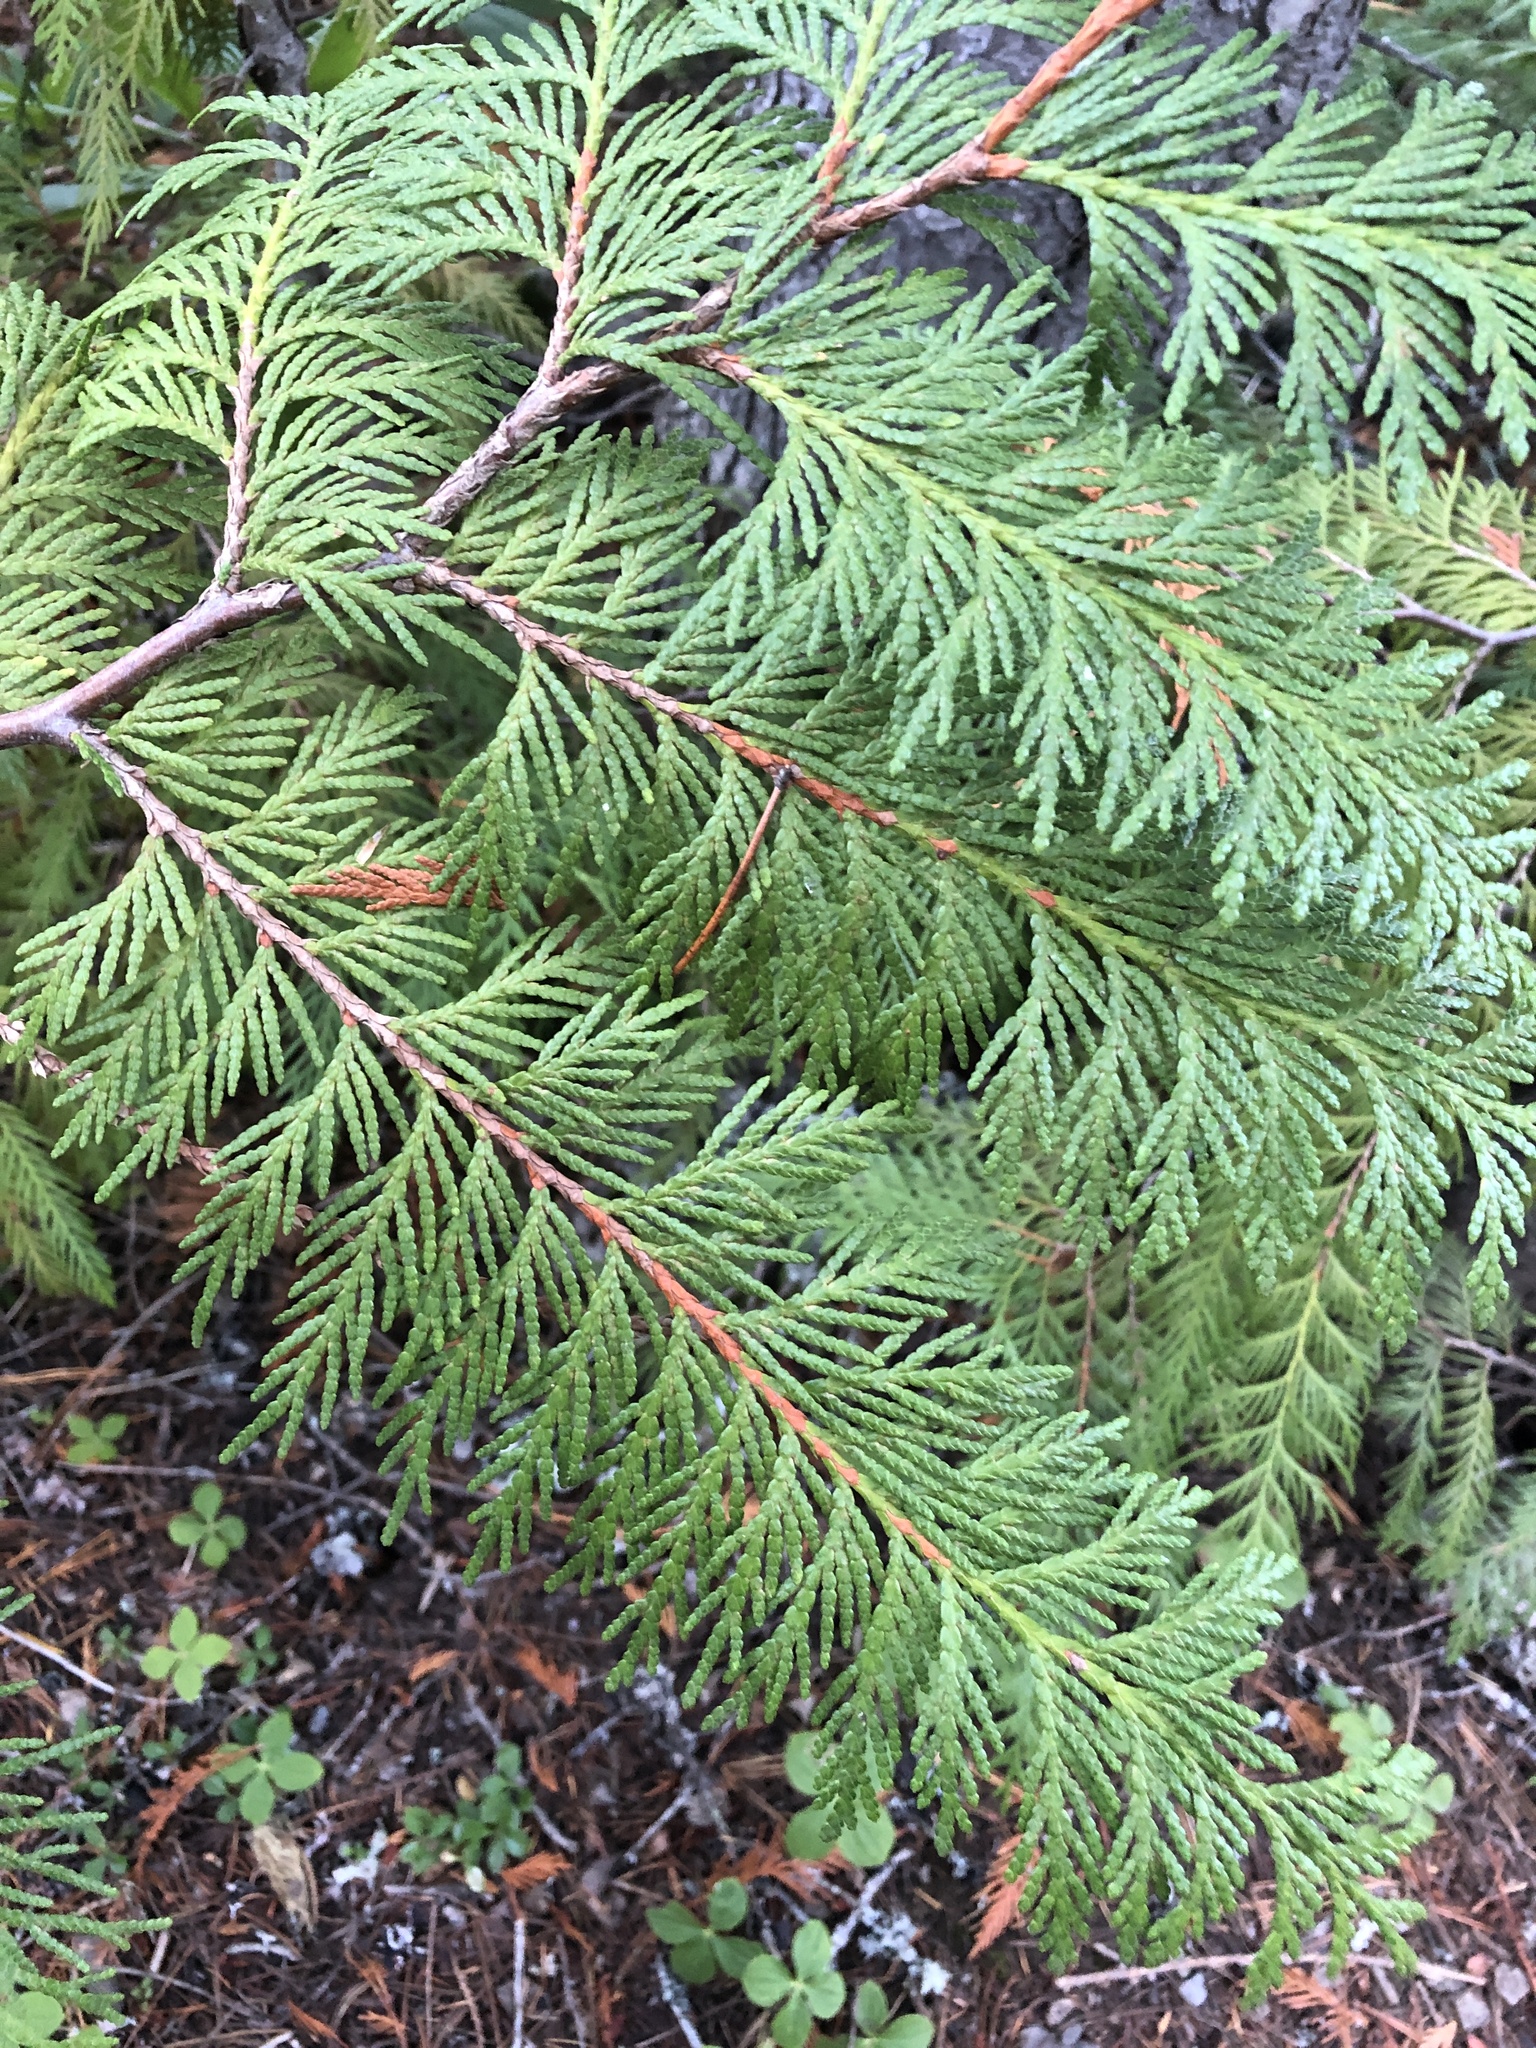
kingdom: Plantae
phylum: Tracheophyta
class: Pinopsida
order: Pinales
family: Cupressaceae
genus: Thuja
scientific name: Thuja plicata
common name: Western red-cedar
